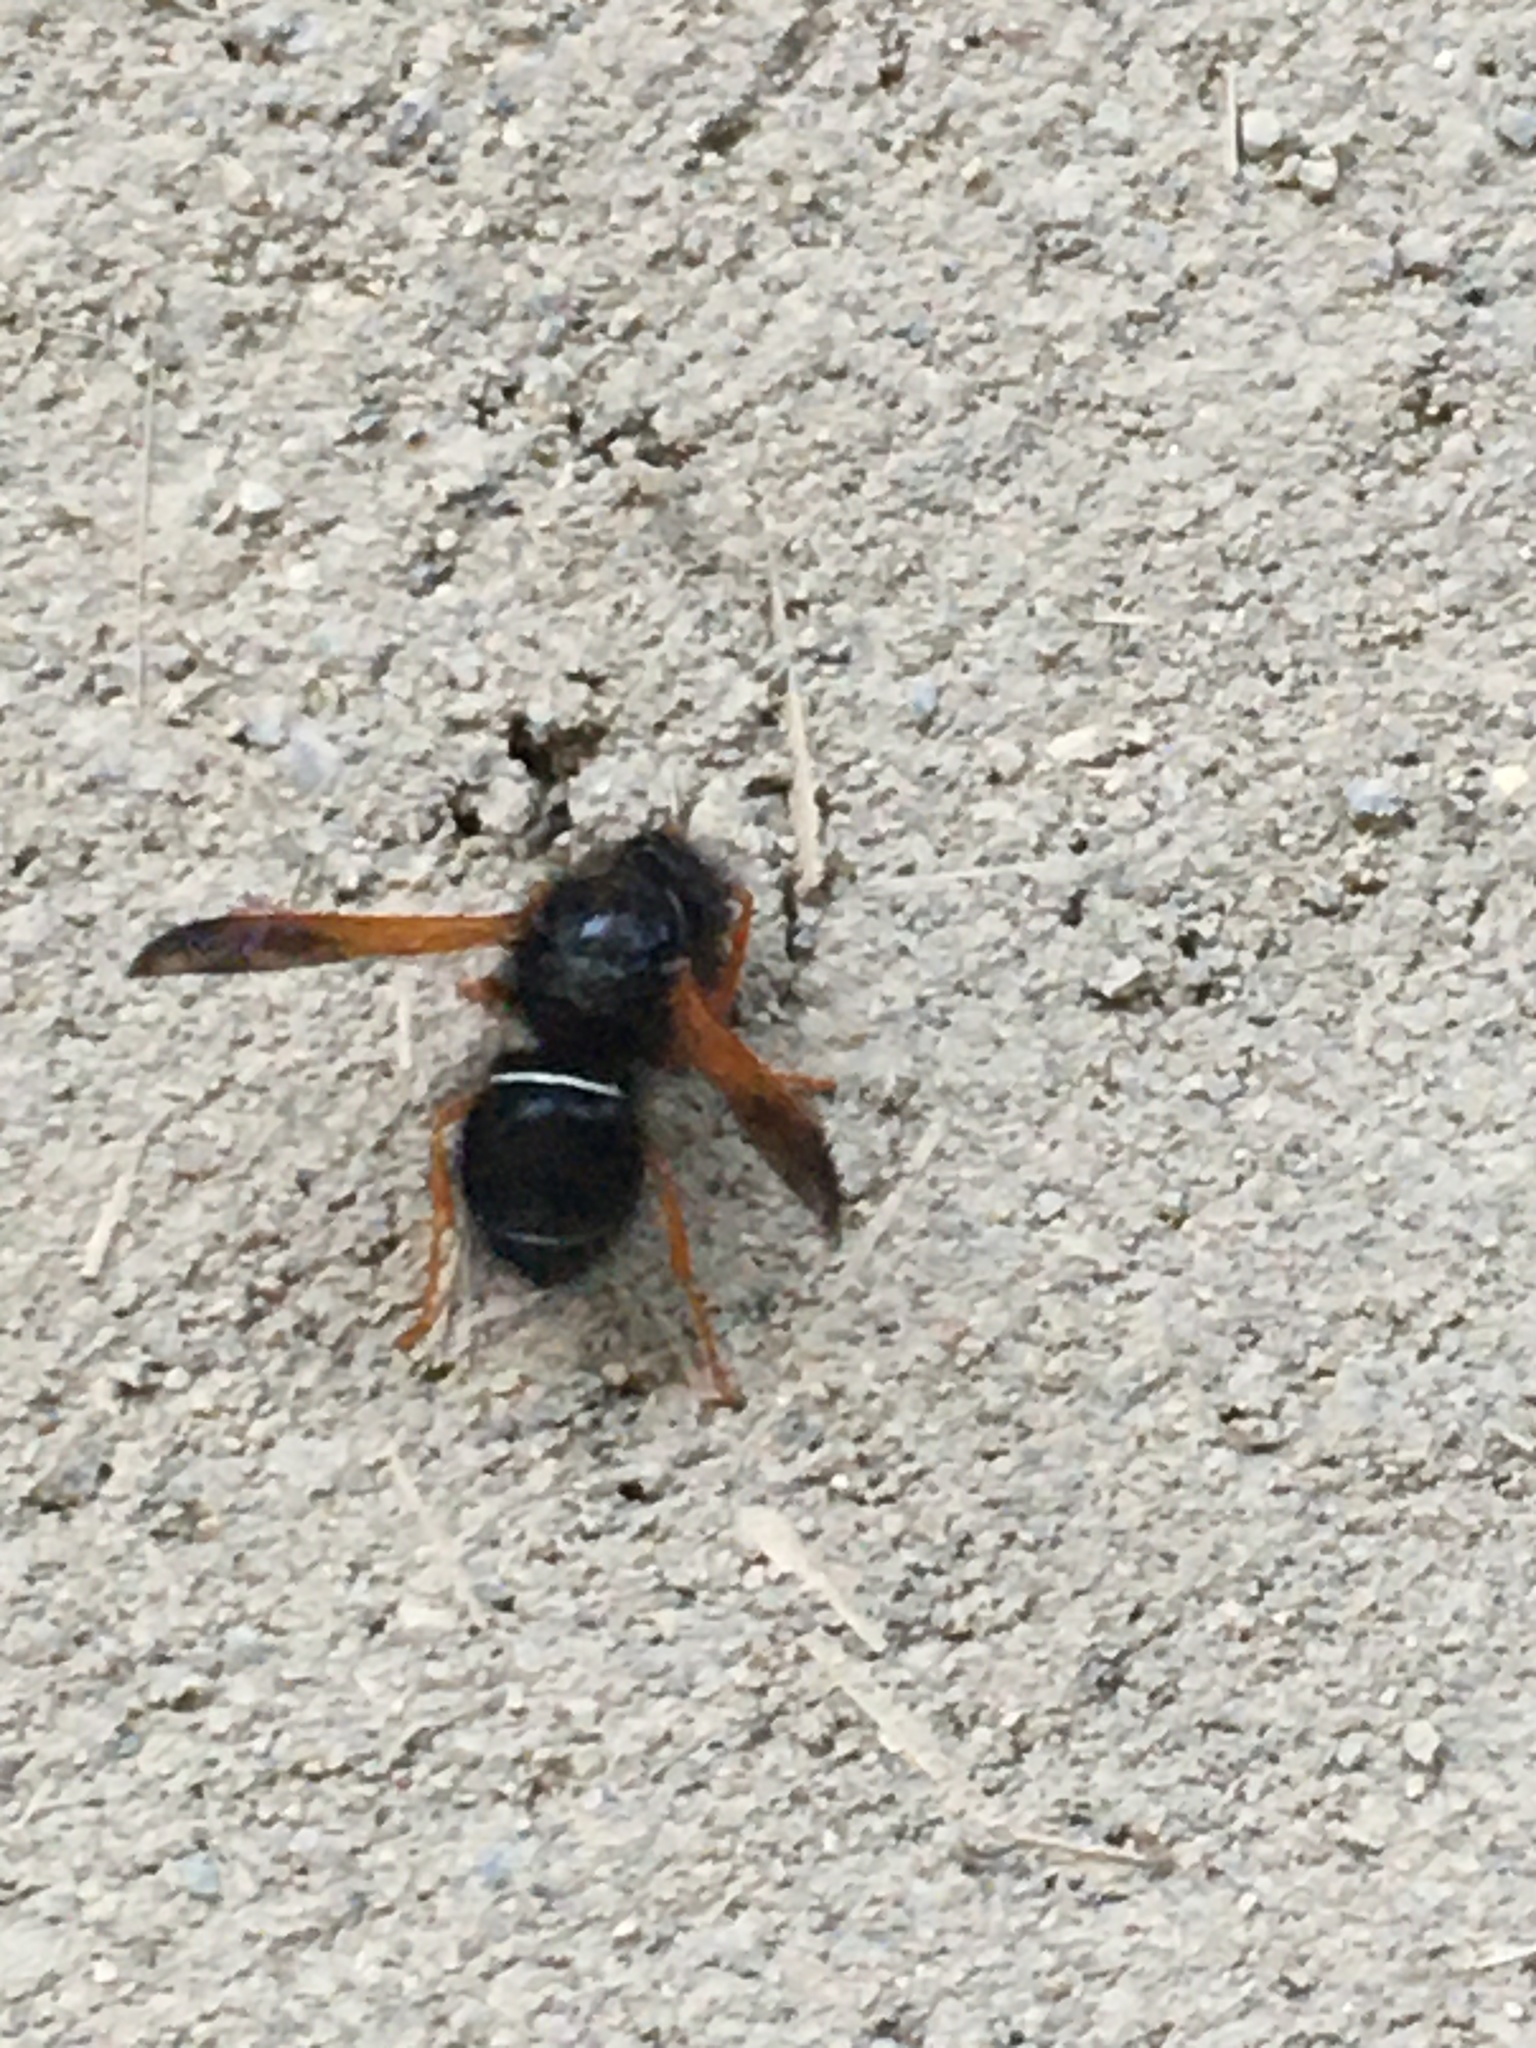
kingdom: Animalia
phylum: Arthropoda
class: Insecta
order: Hymenoptera
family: Vespidae
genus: Hypodynerus
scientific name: Hypodynerus vespiformis
